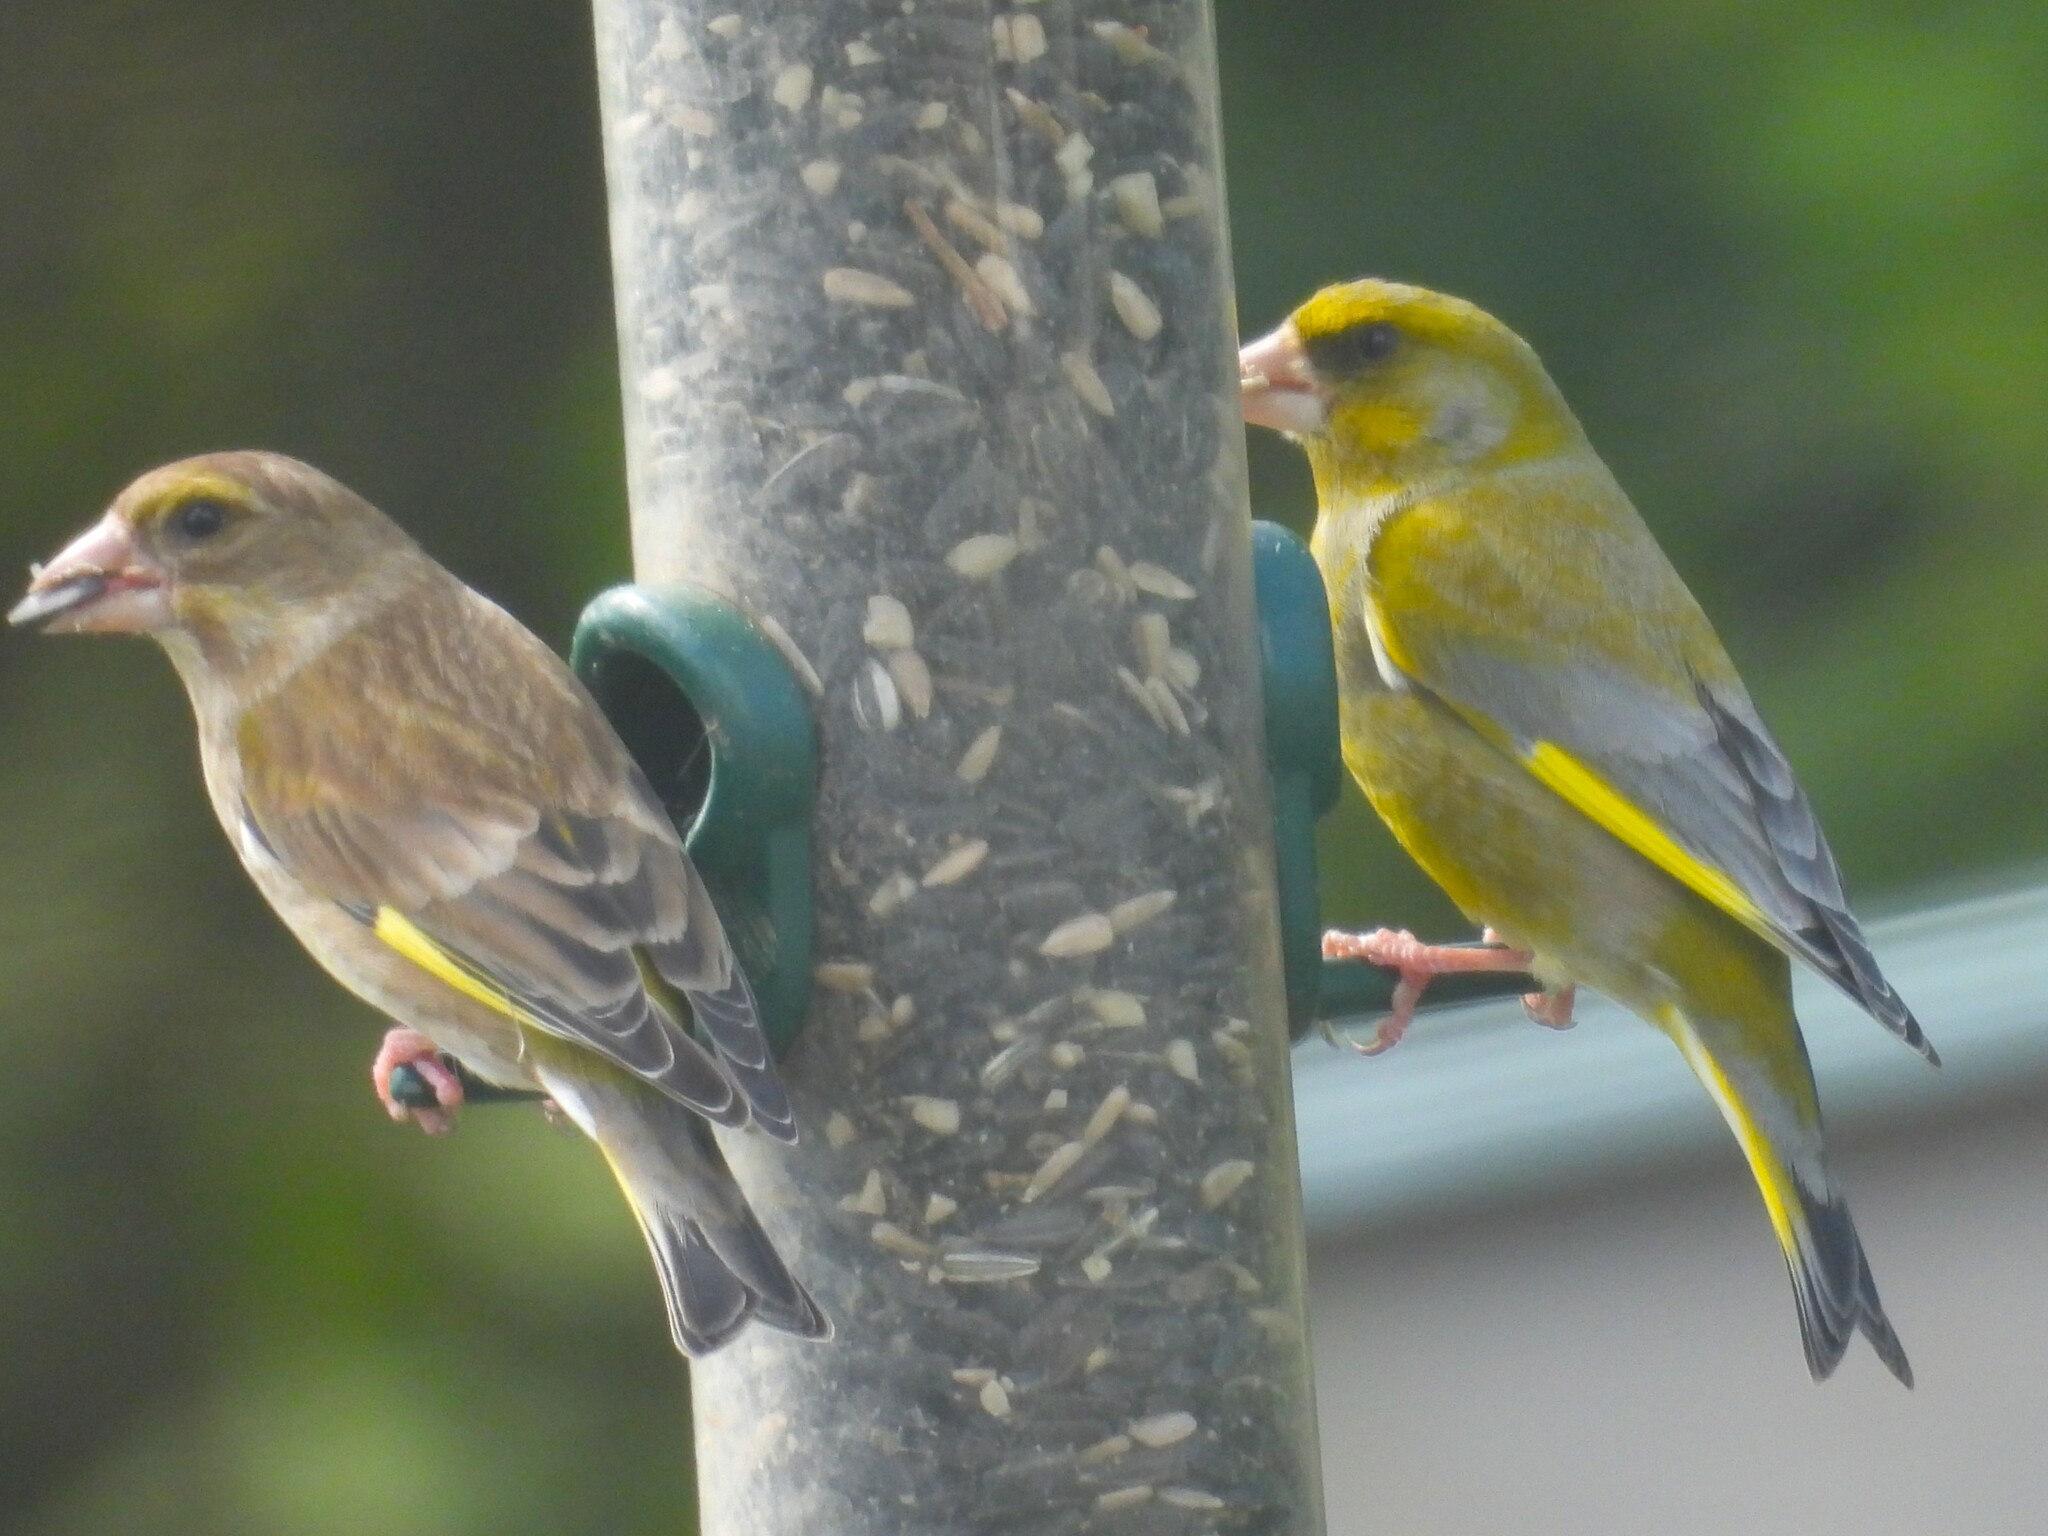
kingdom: Plantae
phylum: Tracheophyta
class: Liliopsida
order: Poales
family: Poaceae
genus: Chloris
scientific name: Chloris chloris
